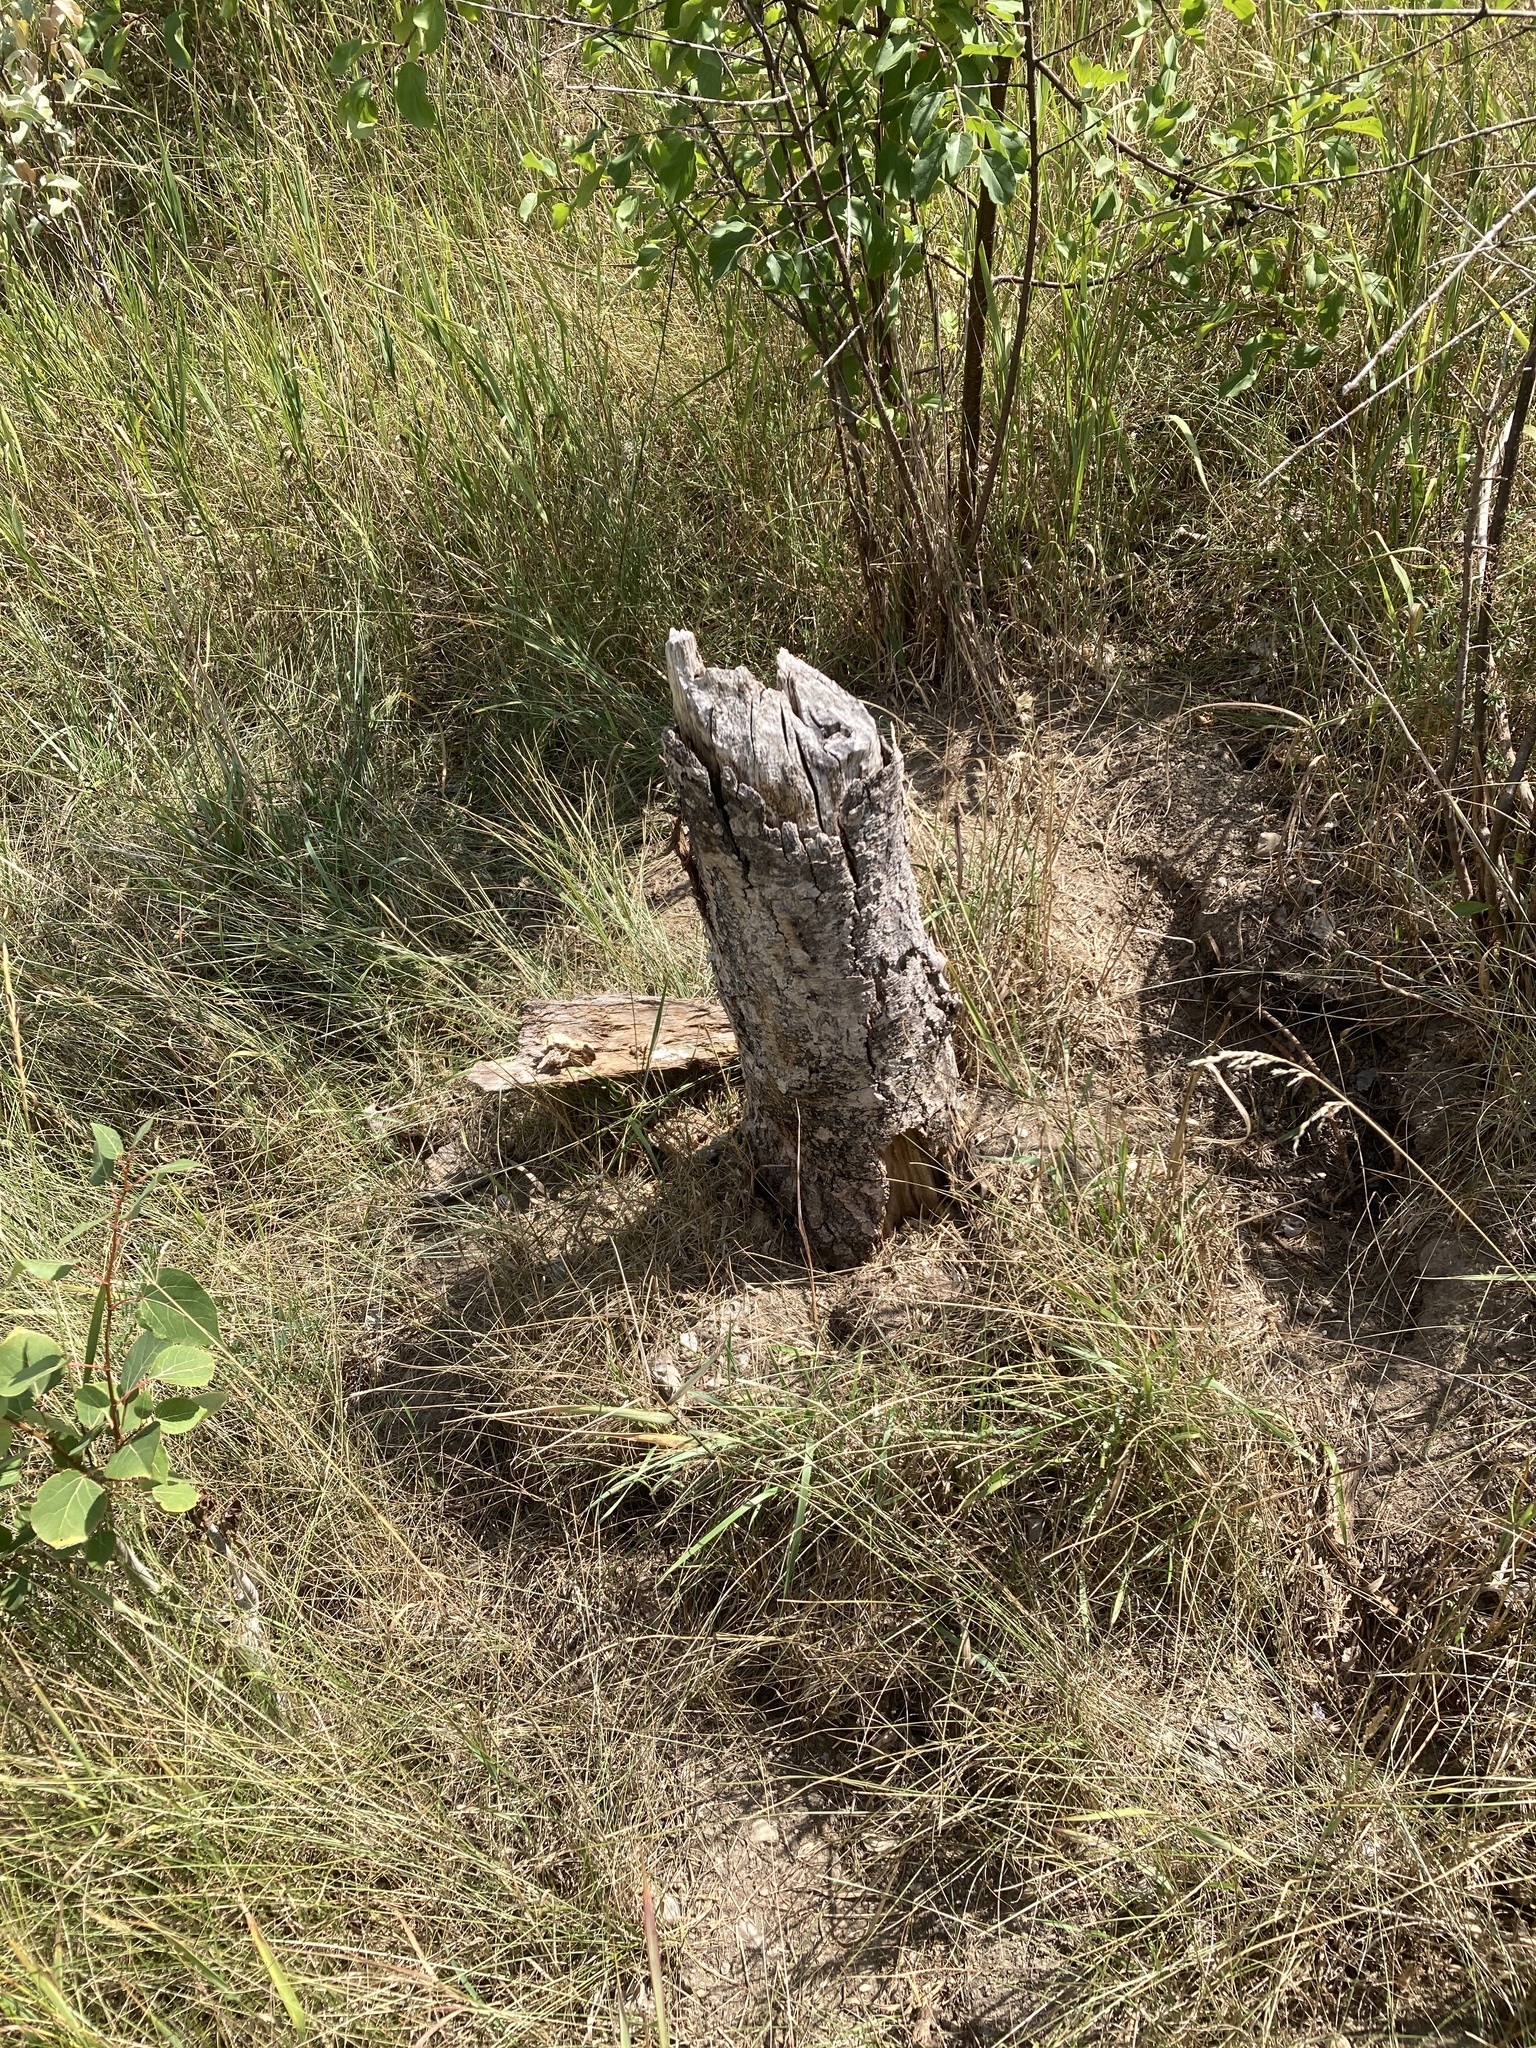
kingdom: Animalia
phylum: Chordata
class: Mammalia
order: Rodentia
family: Castoridae
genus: Castor
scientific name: Castor canadensis
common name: American beaver
